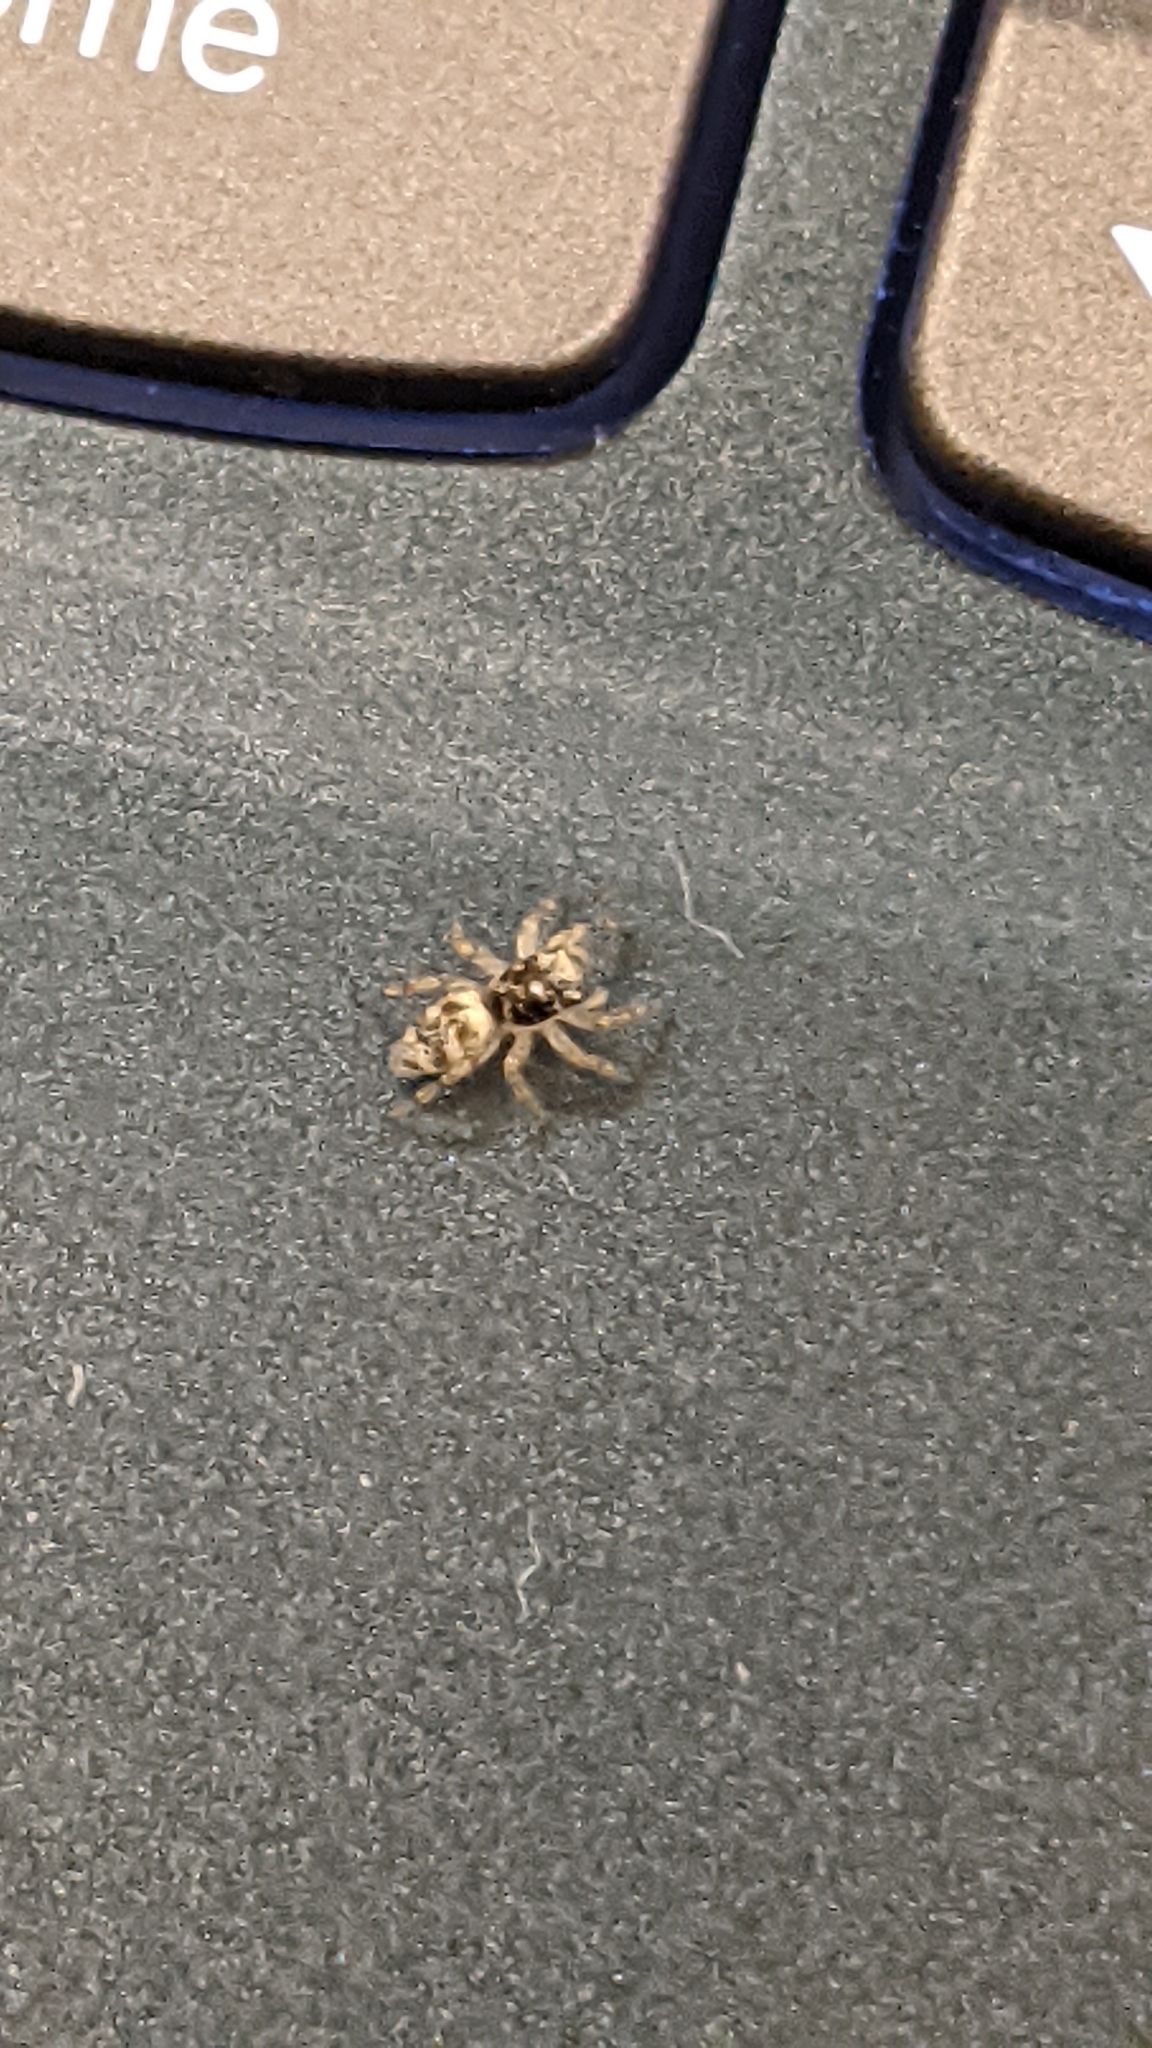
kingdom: Animalia
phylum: Arthropoda
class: Arachnida
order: Araneae
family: Salticidae
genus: Salticus
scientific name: Salticus scenicus
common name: Zebra jumper
